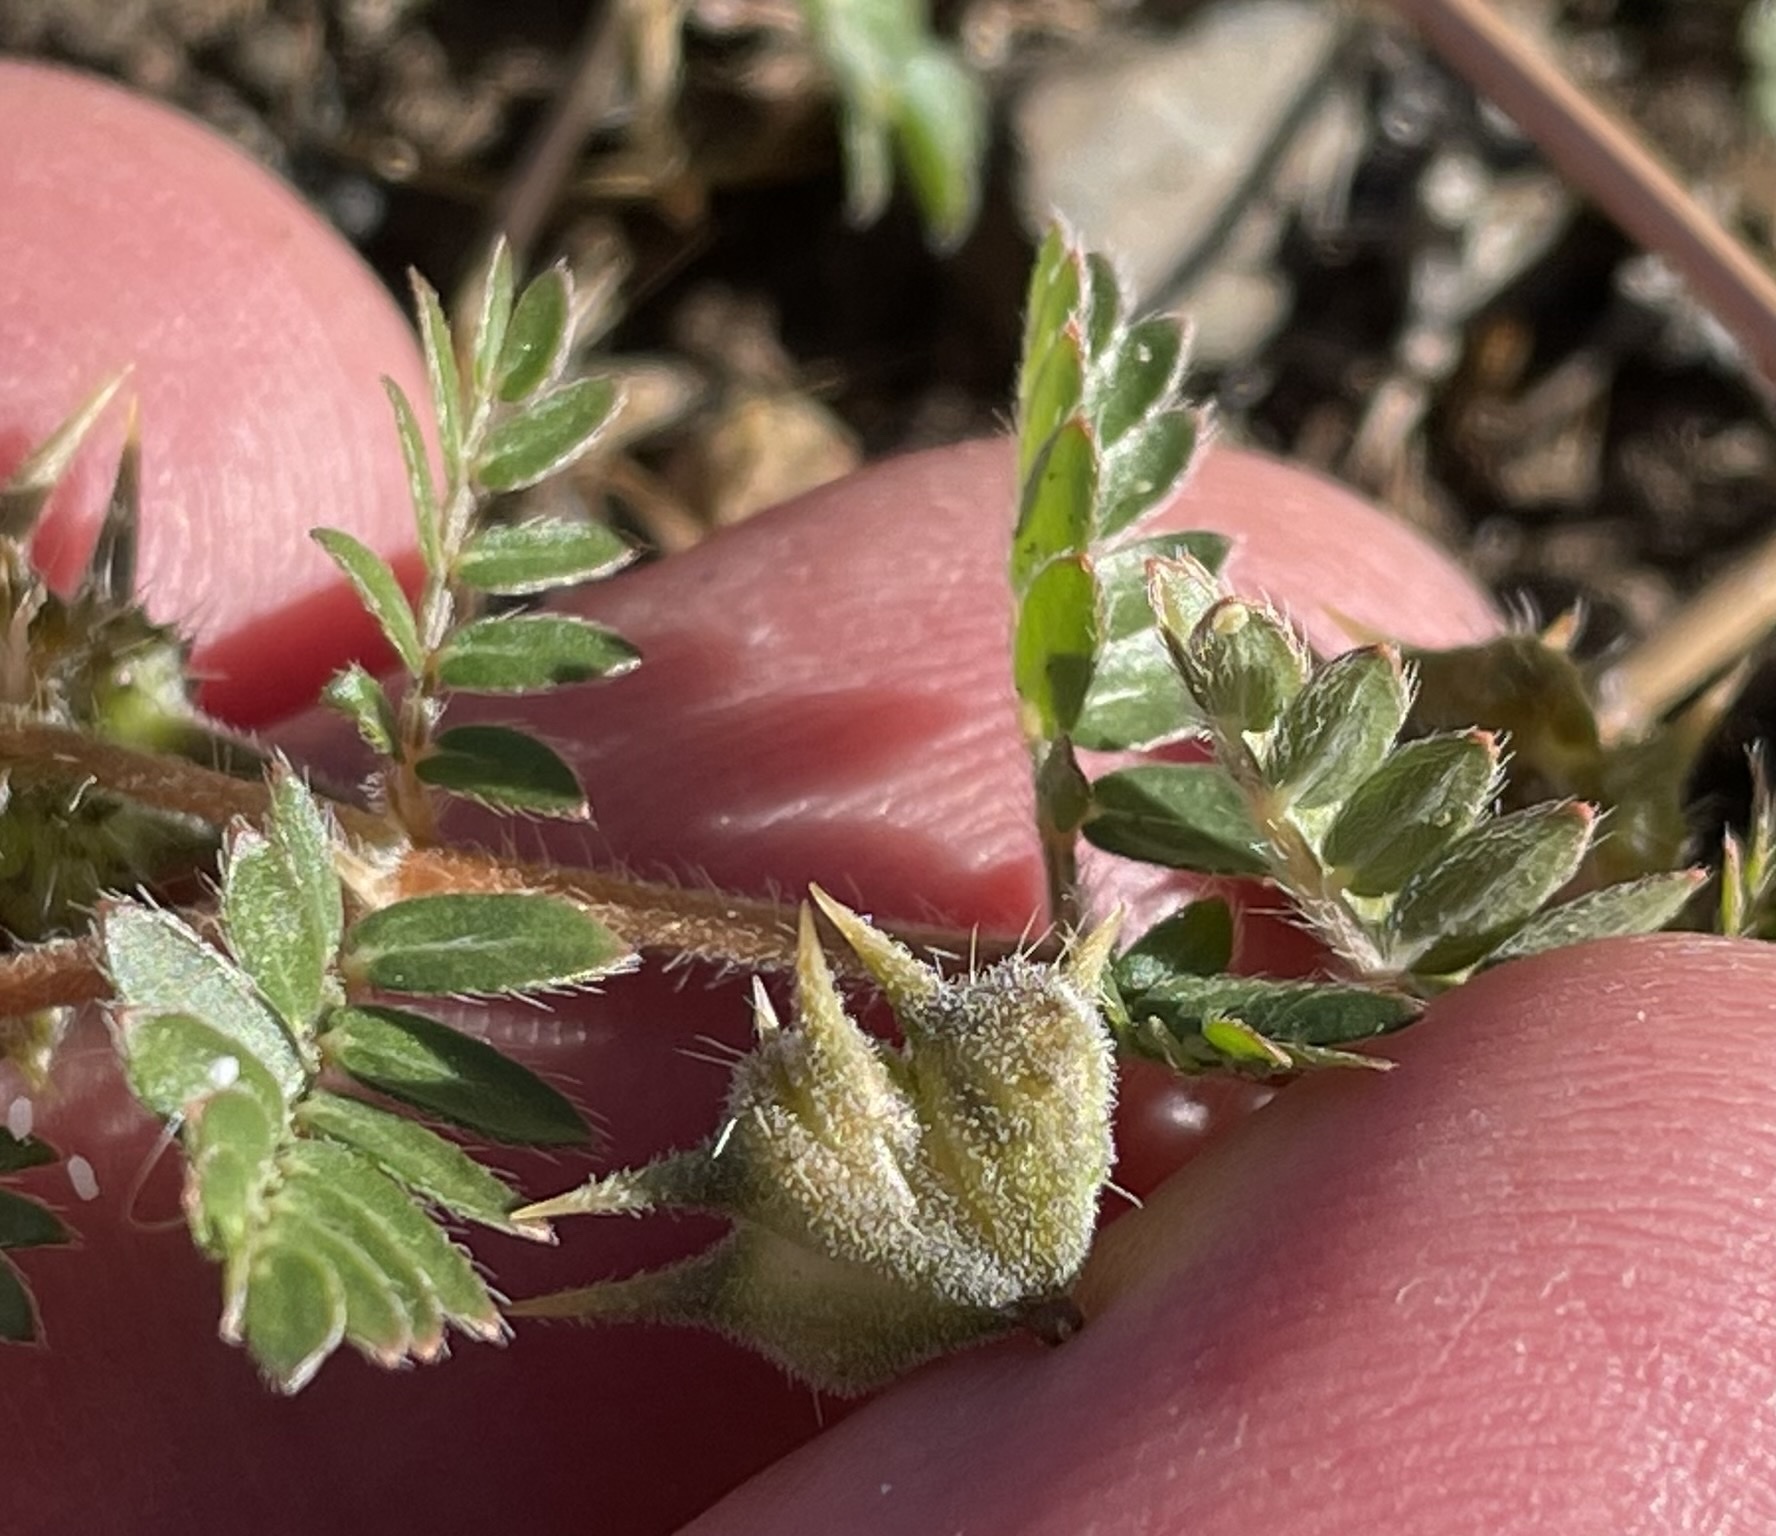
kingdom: Plantae
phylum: Tracheophyta
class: Magnoliopsida
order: Zygophyllales
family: Zygophyllaceae
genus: Tribulus
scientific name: Tribulus terrestris
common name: Puncturevine
